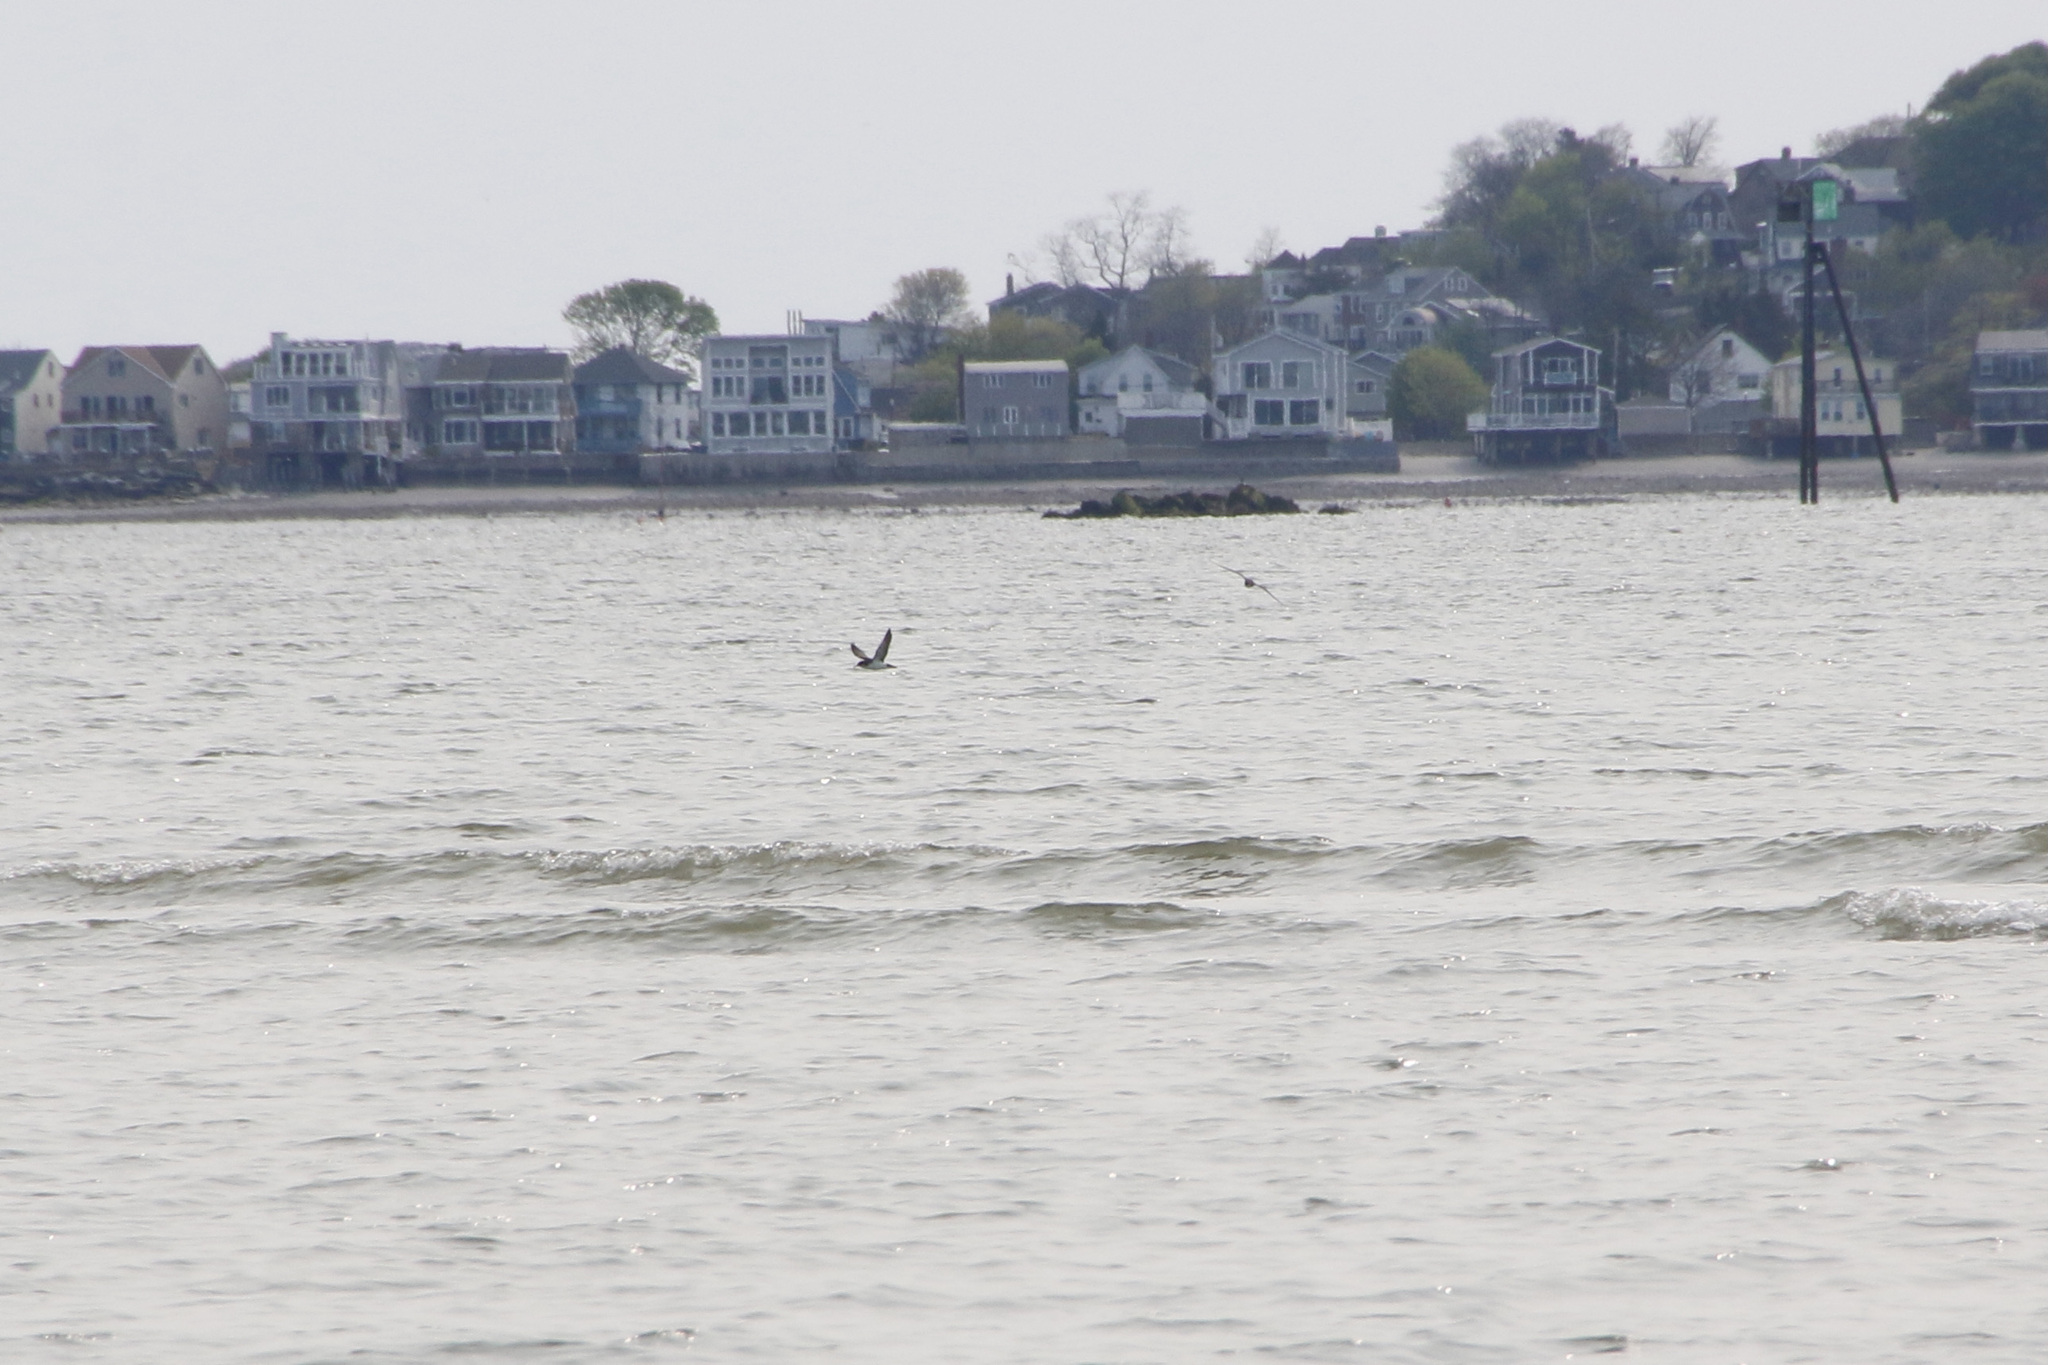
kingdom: Animalia
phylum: Chordata
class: Aves
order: Procellariiformes
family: Procellariidae
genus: Puffinus
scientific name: Puffinus puffinus
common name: Manx shearwater
